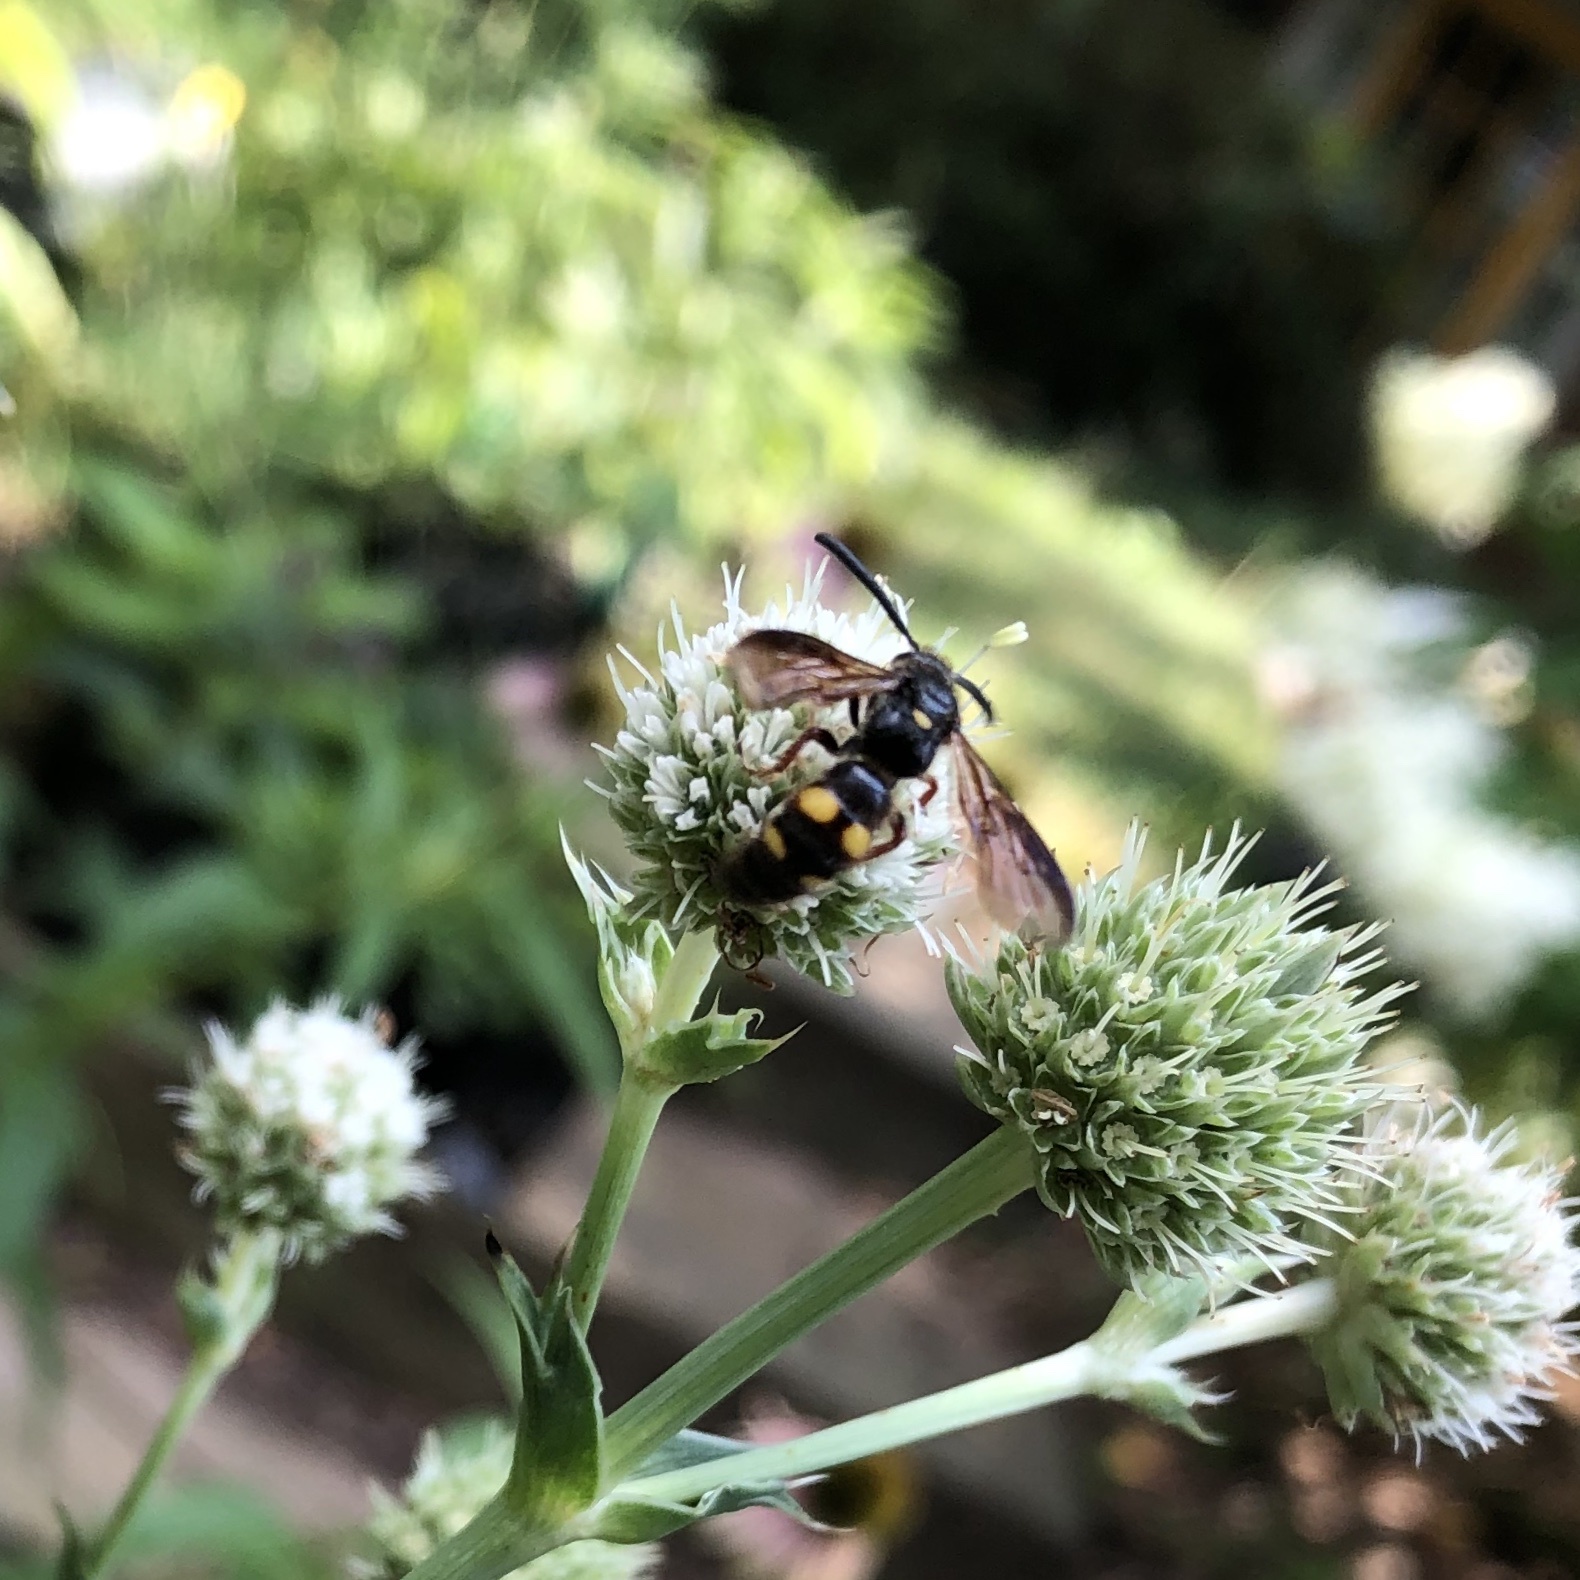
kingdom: Animalia
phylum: Arthropoda
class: Insecta
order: Hymenoptera
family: Scoliidae
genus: Scolia
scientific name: Scolia nobilitata
